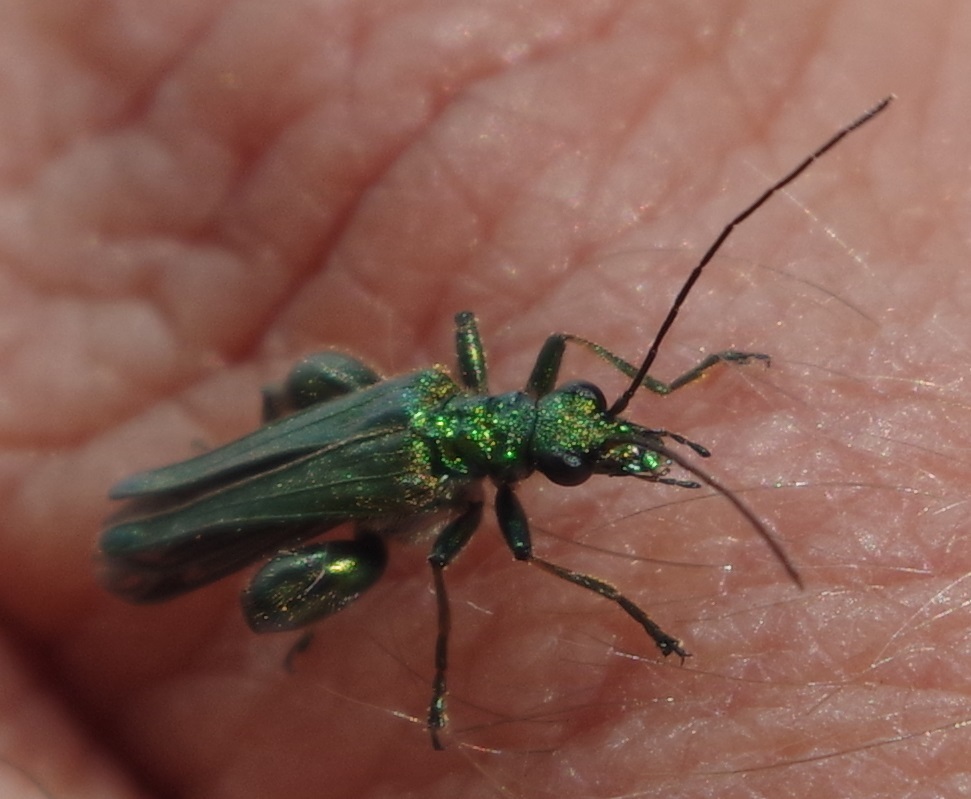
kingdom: Animalia
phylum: Arthropoda
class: Insecta
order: Coleoptera
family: Oedemeridae
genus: Oedemera
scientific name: Oedemera nobilis
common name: Swollen-thighed beetle
